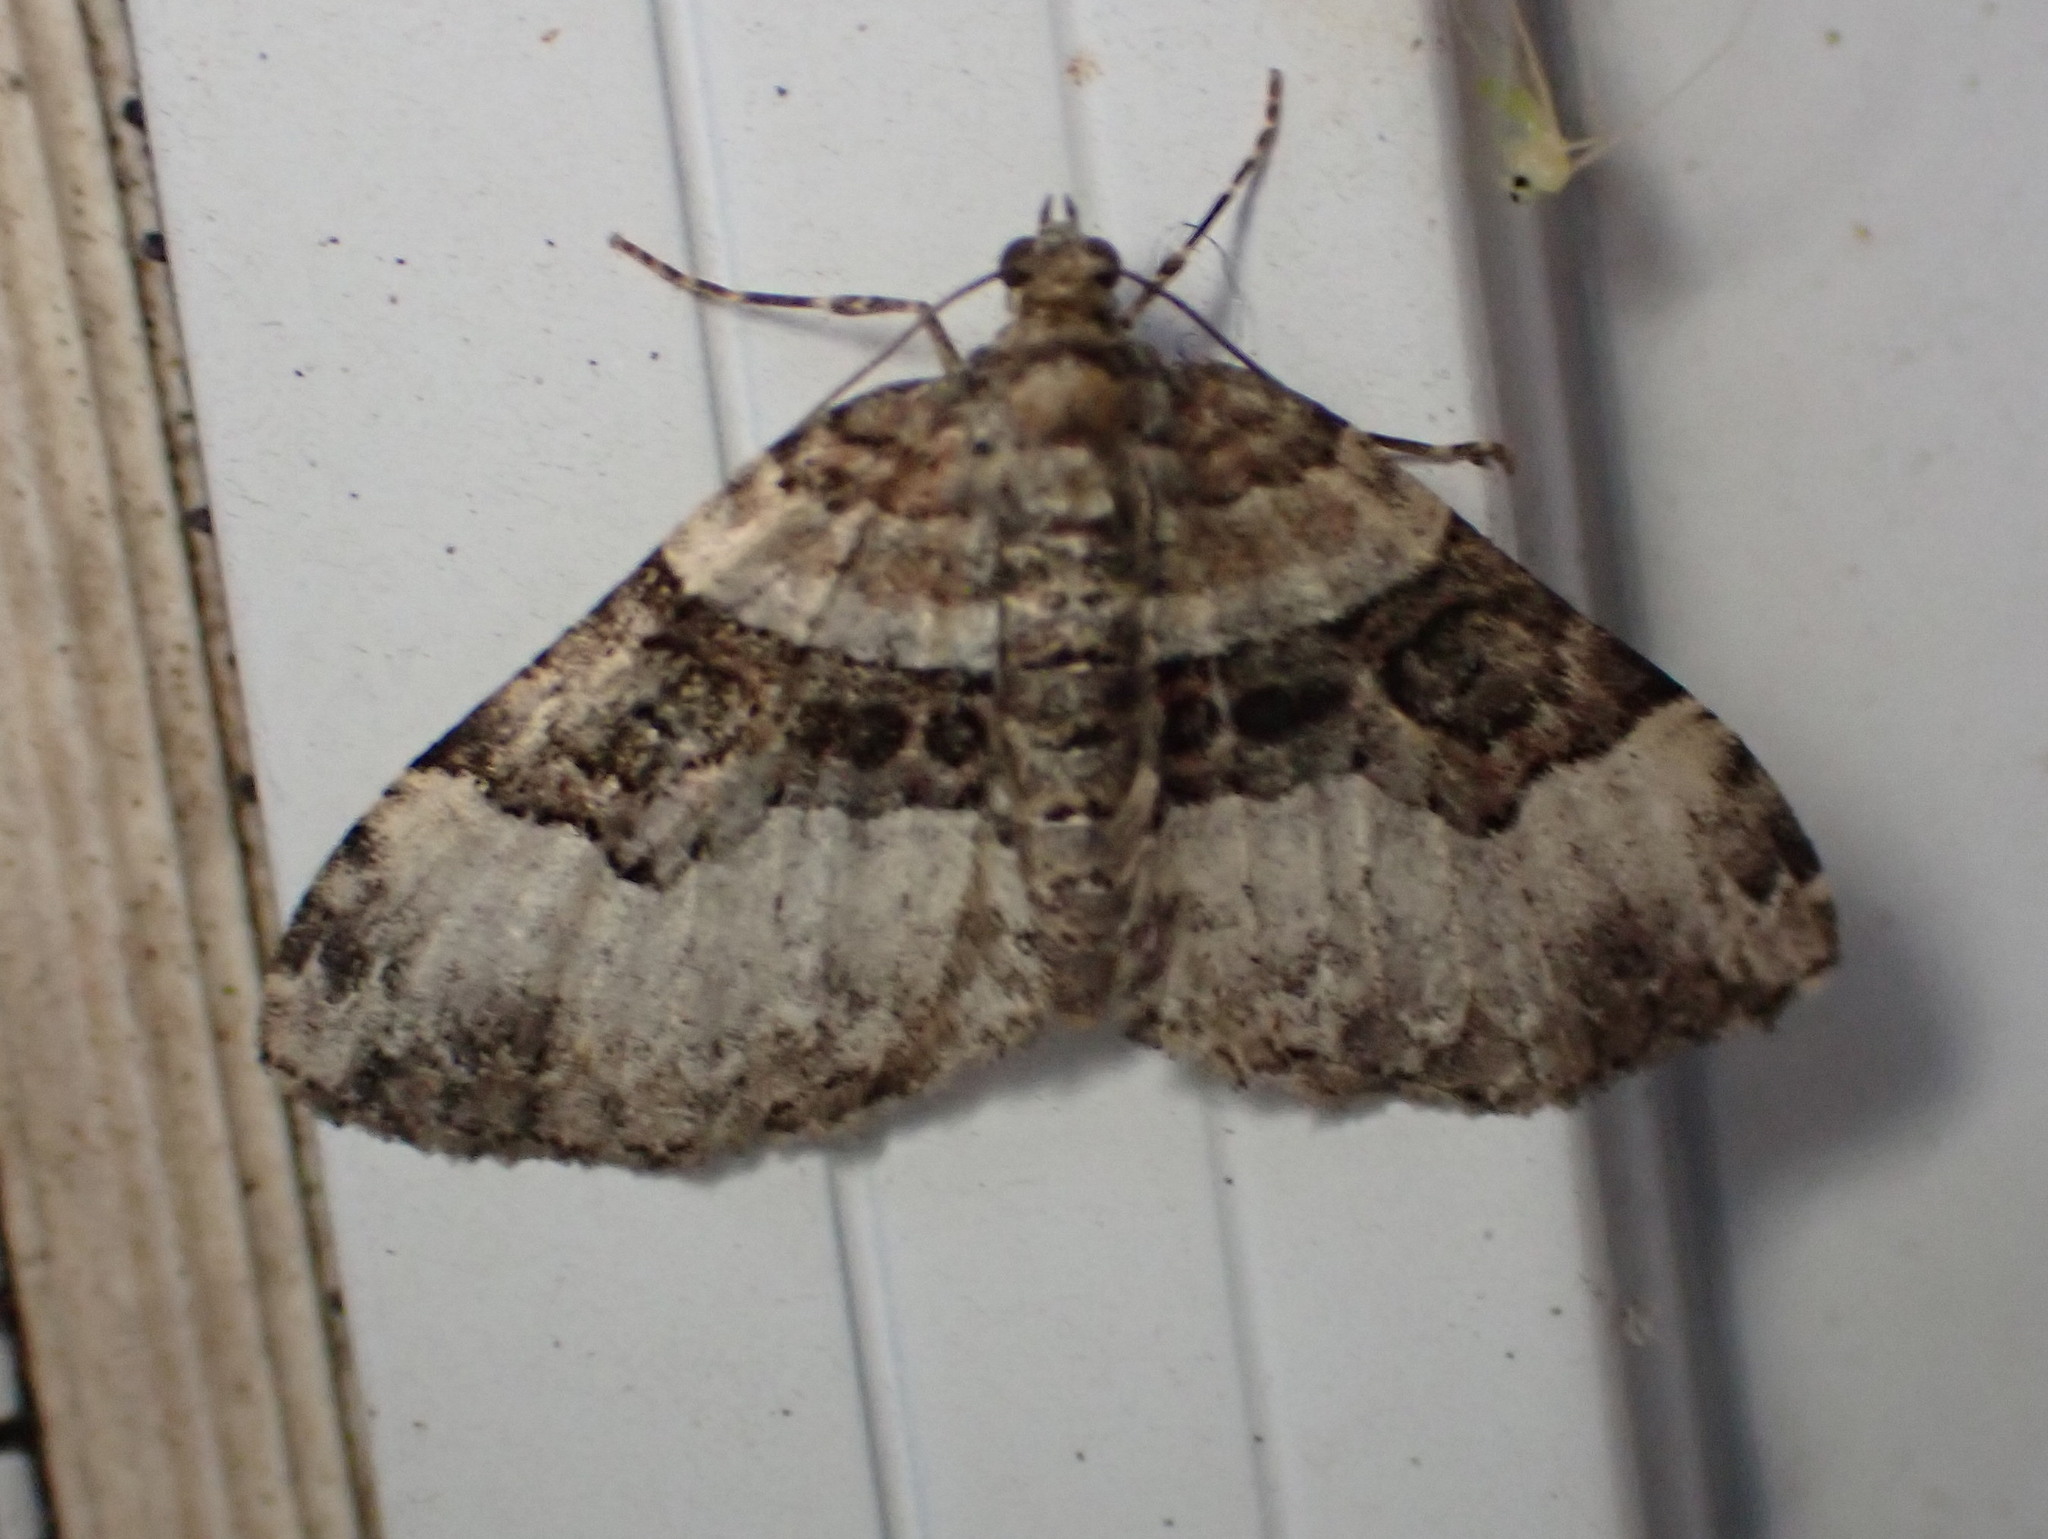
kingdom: Animalia
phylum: Arthropoda
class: Insecta
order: Lepidoptera
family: Geometridae
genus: Xanthorhoe
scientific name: Xanthorhoe lacustrata
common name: Toothed brown carpet
